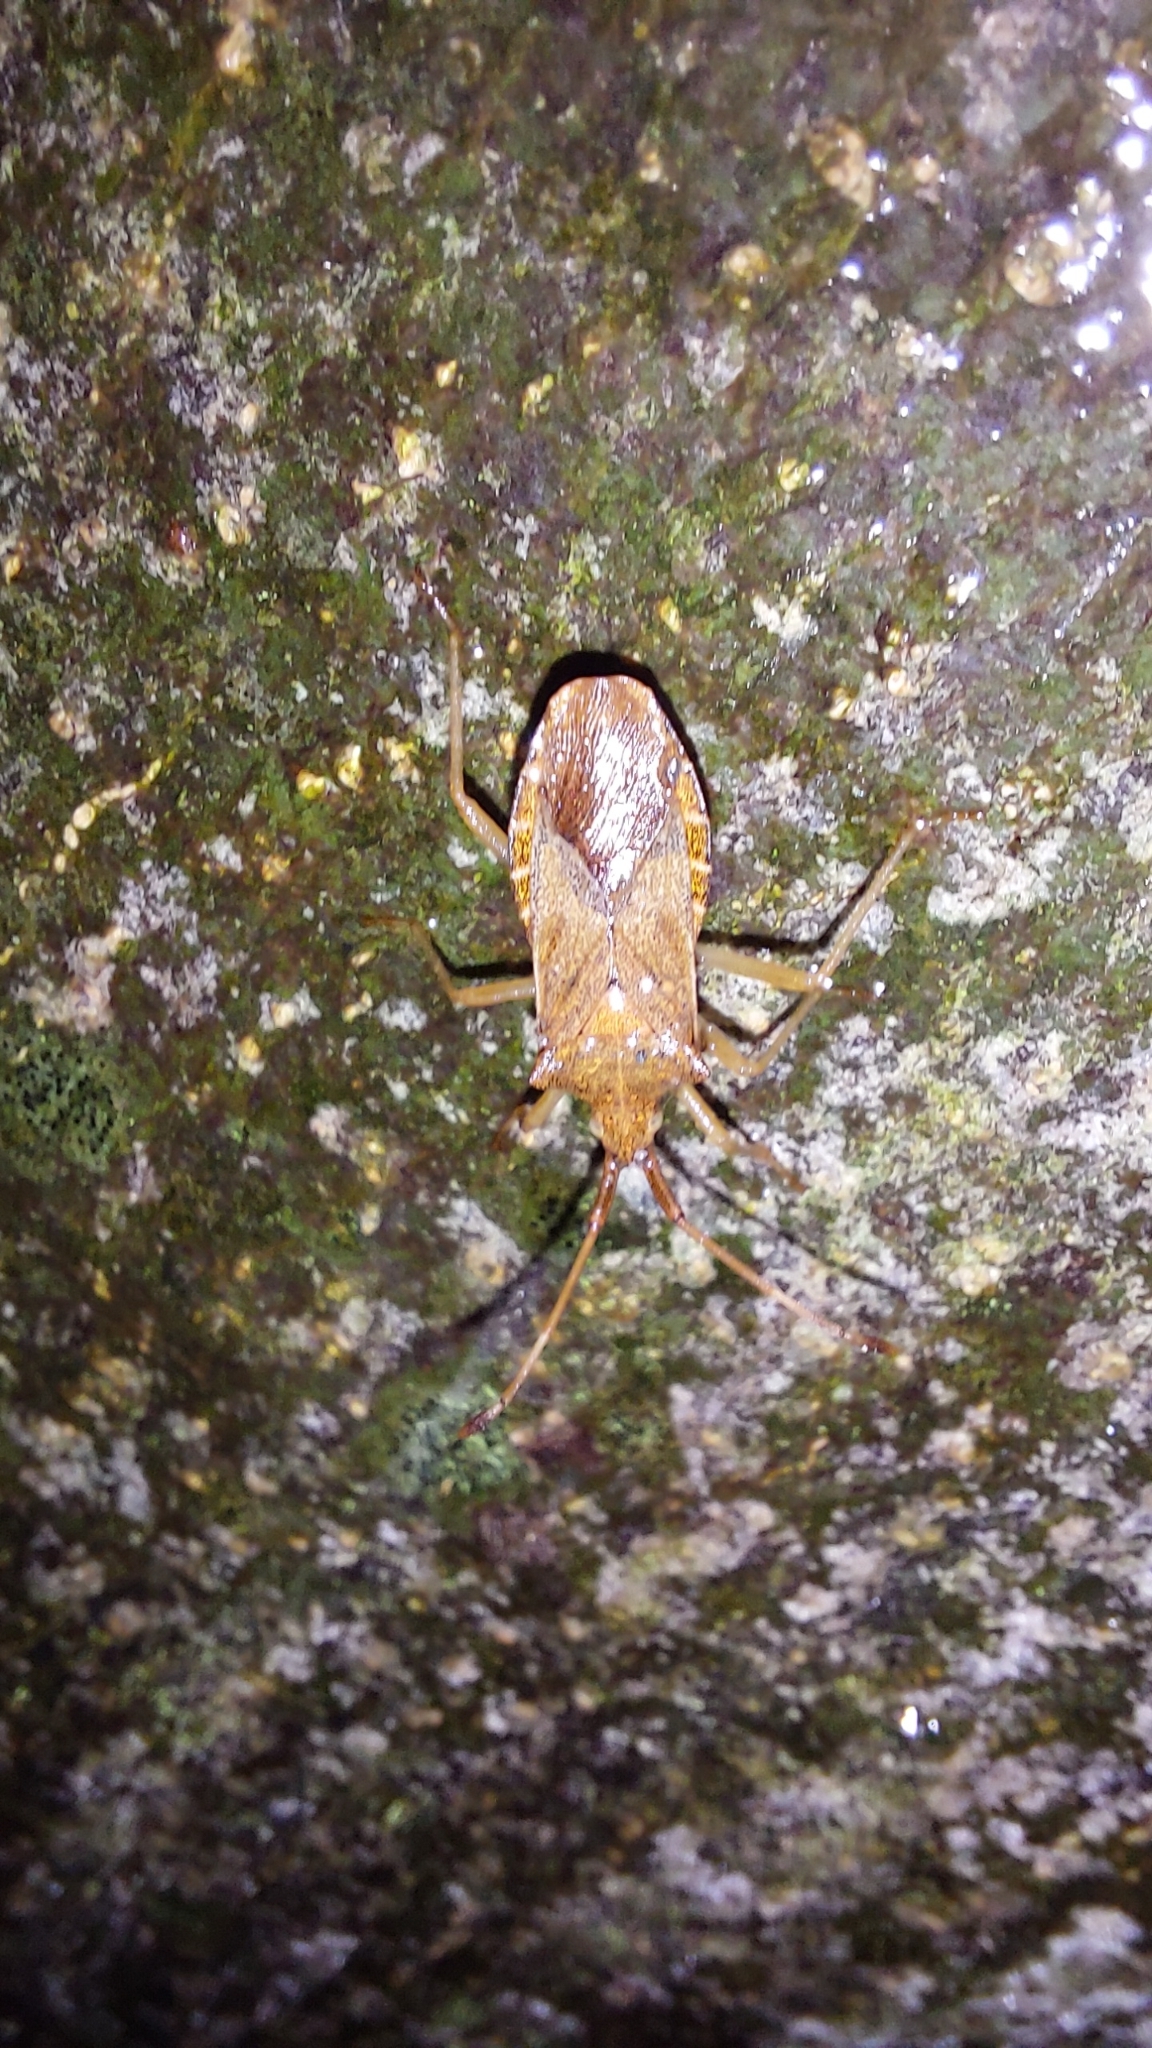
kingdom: Animalia
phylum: Arthropoda
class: Insecta
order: Hemiptera
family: Coreidae
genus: Gonocerus
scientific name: Gonocerus acuteangulatus
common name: Box bug
